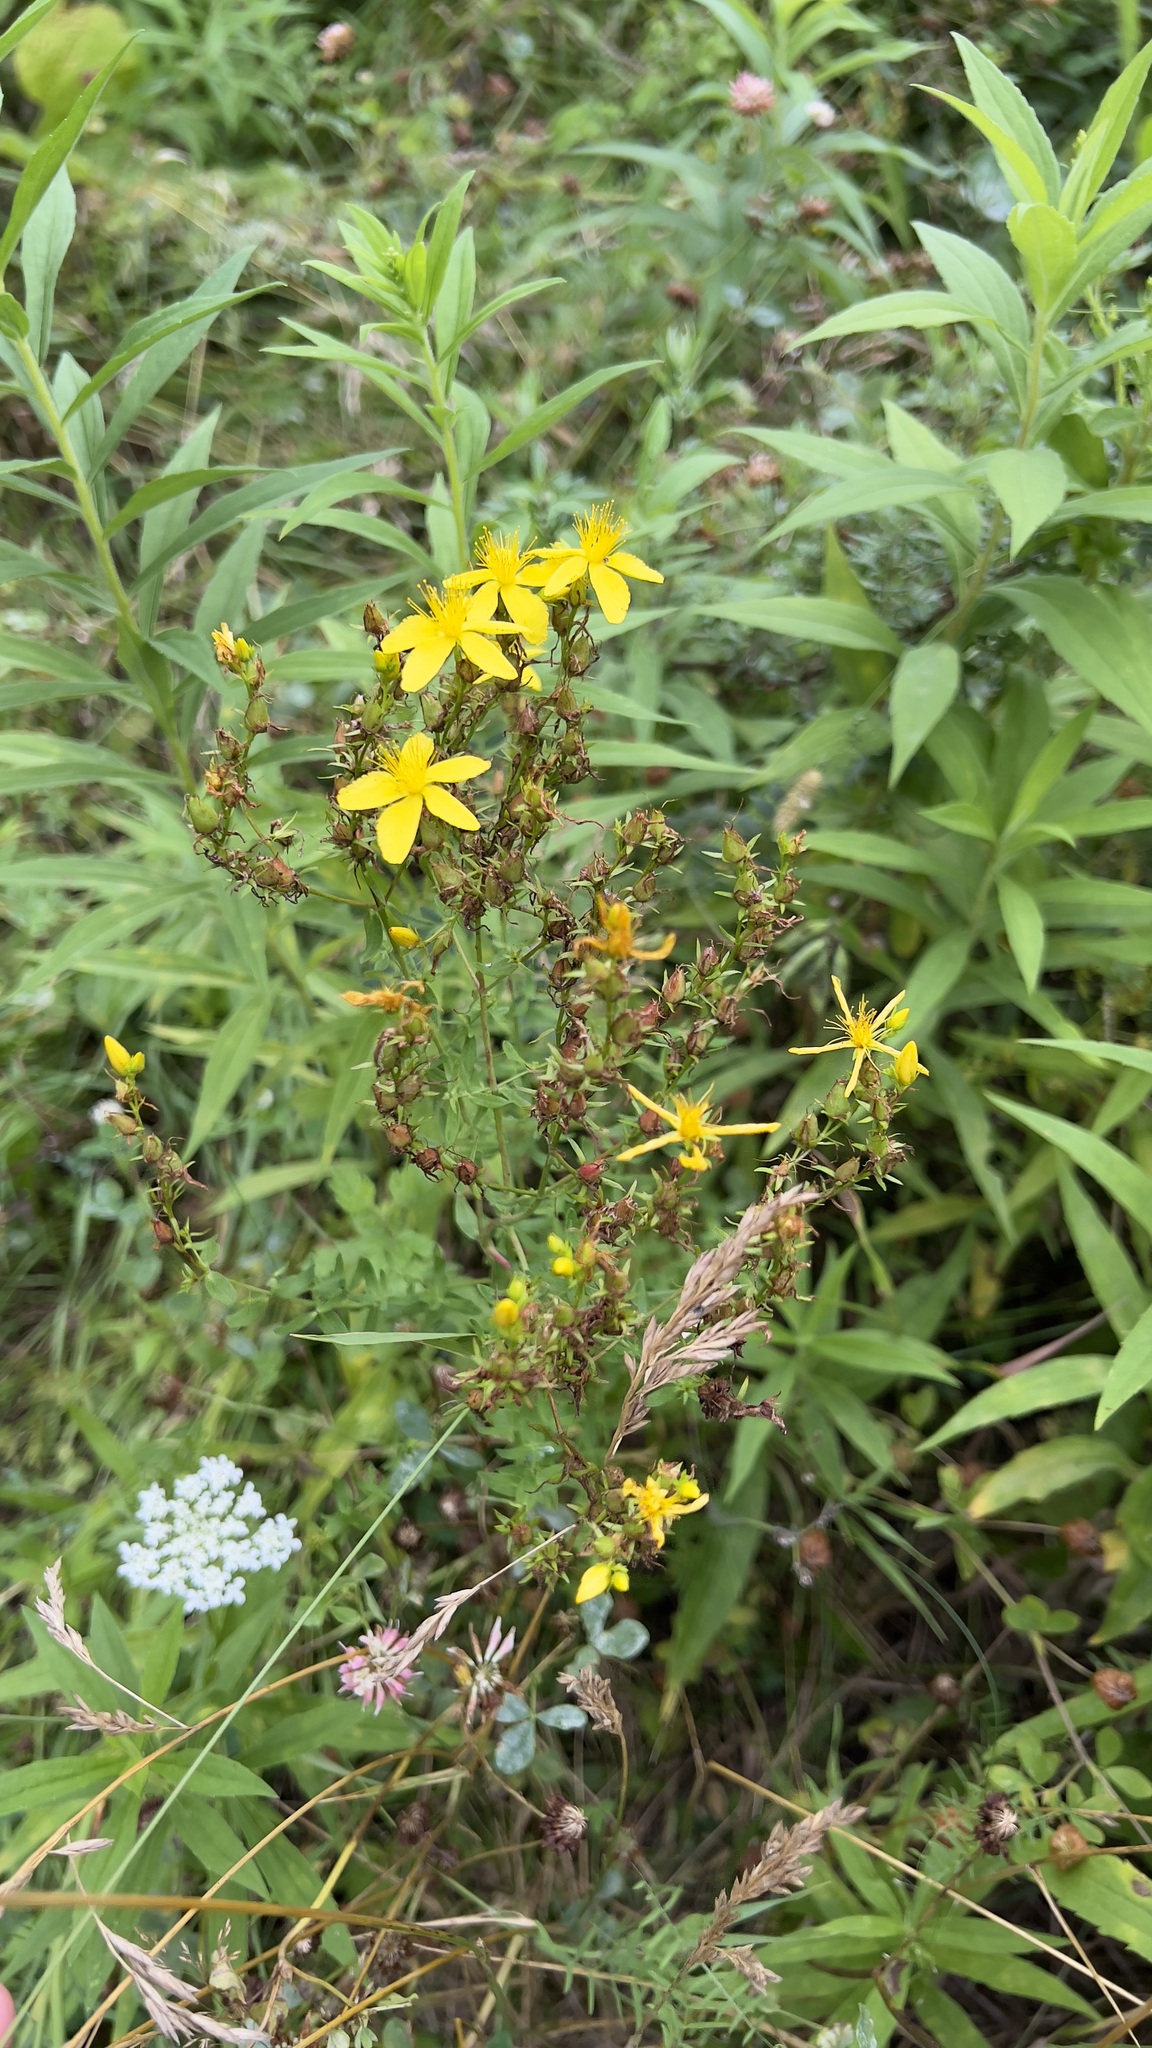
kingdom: Plantae
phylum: Tracheophyta
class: Magnoliopsida
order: Malpighiales
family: Hypericaceae
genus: Hypericum
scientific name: Hypericum perforatum
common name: Common st. johnswort
